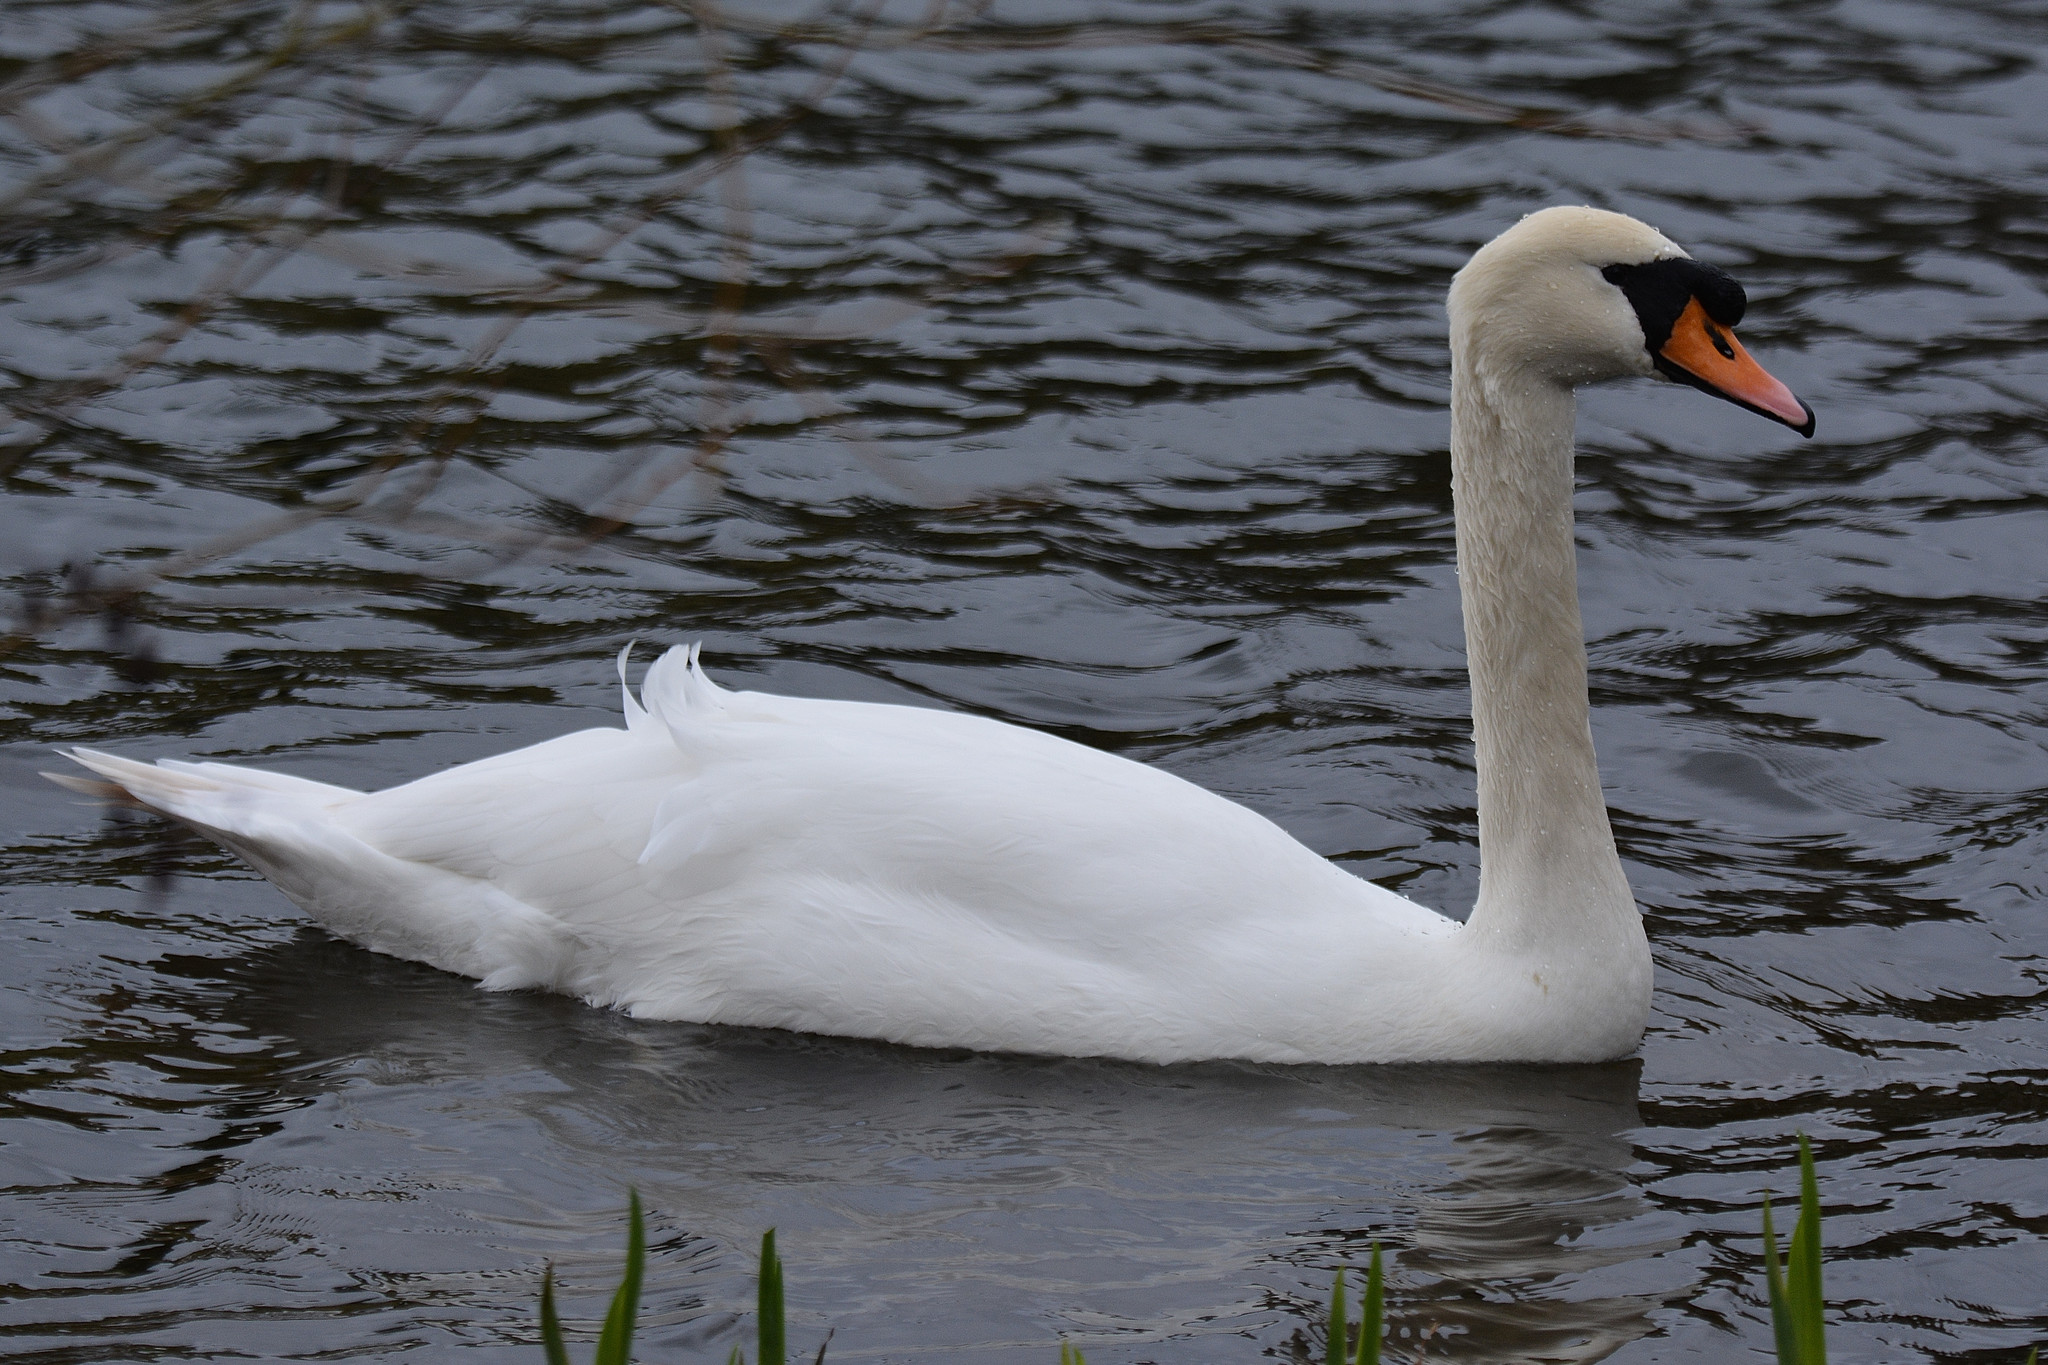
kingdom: Animalia
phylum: Chordata
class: Aves
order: Anseriformes
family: Anatidae
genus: Cygnus
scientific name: Cygnus olor
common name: Mute swan
